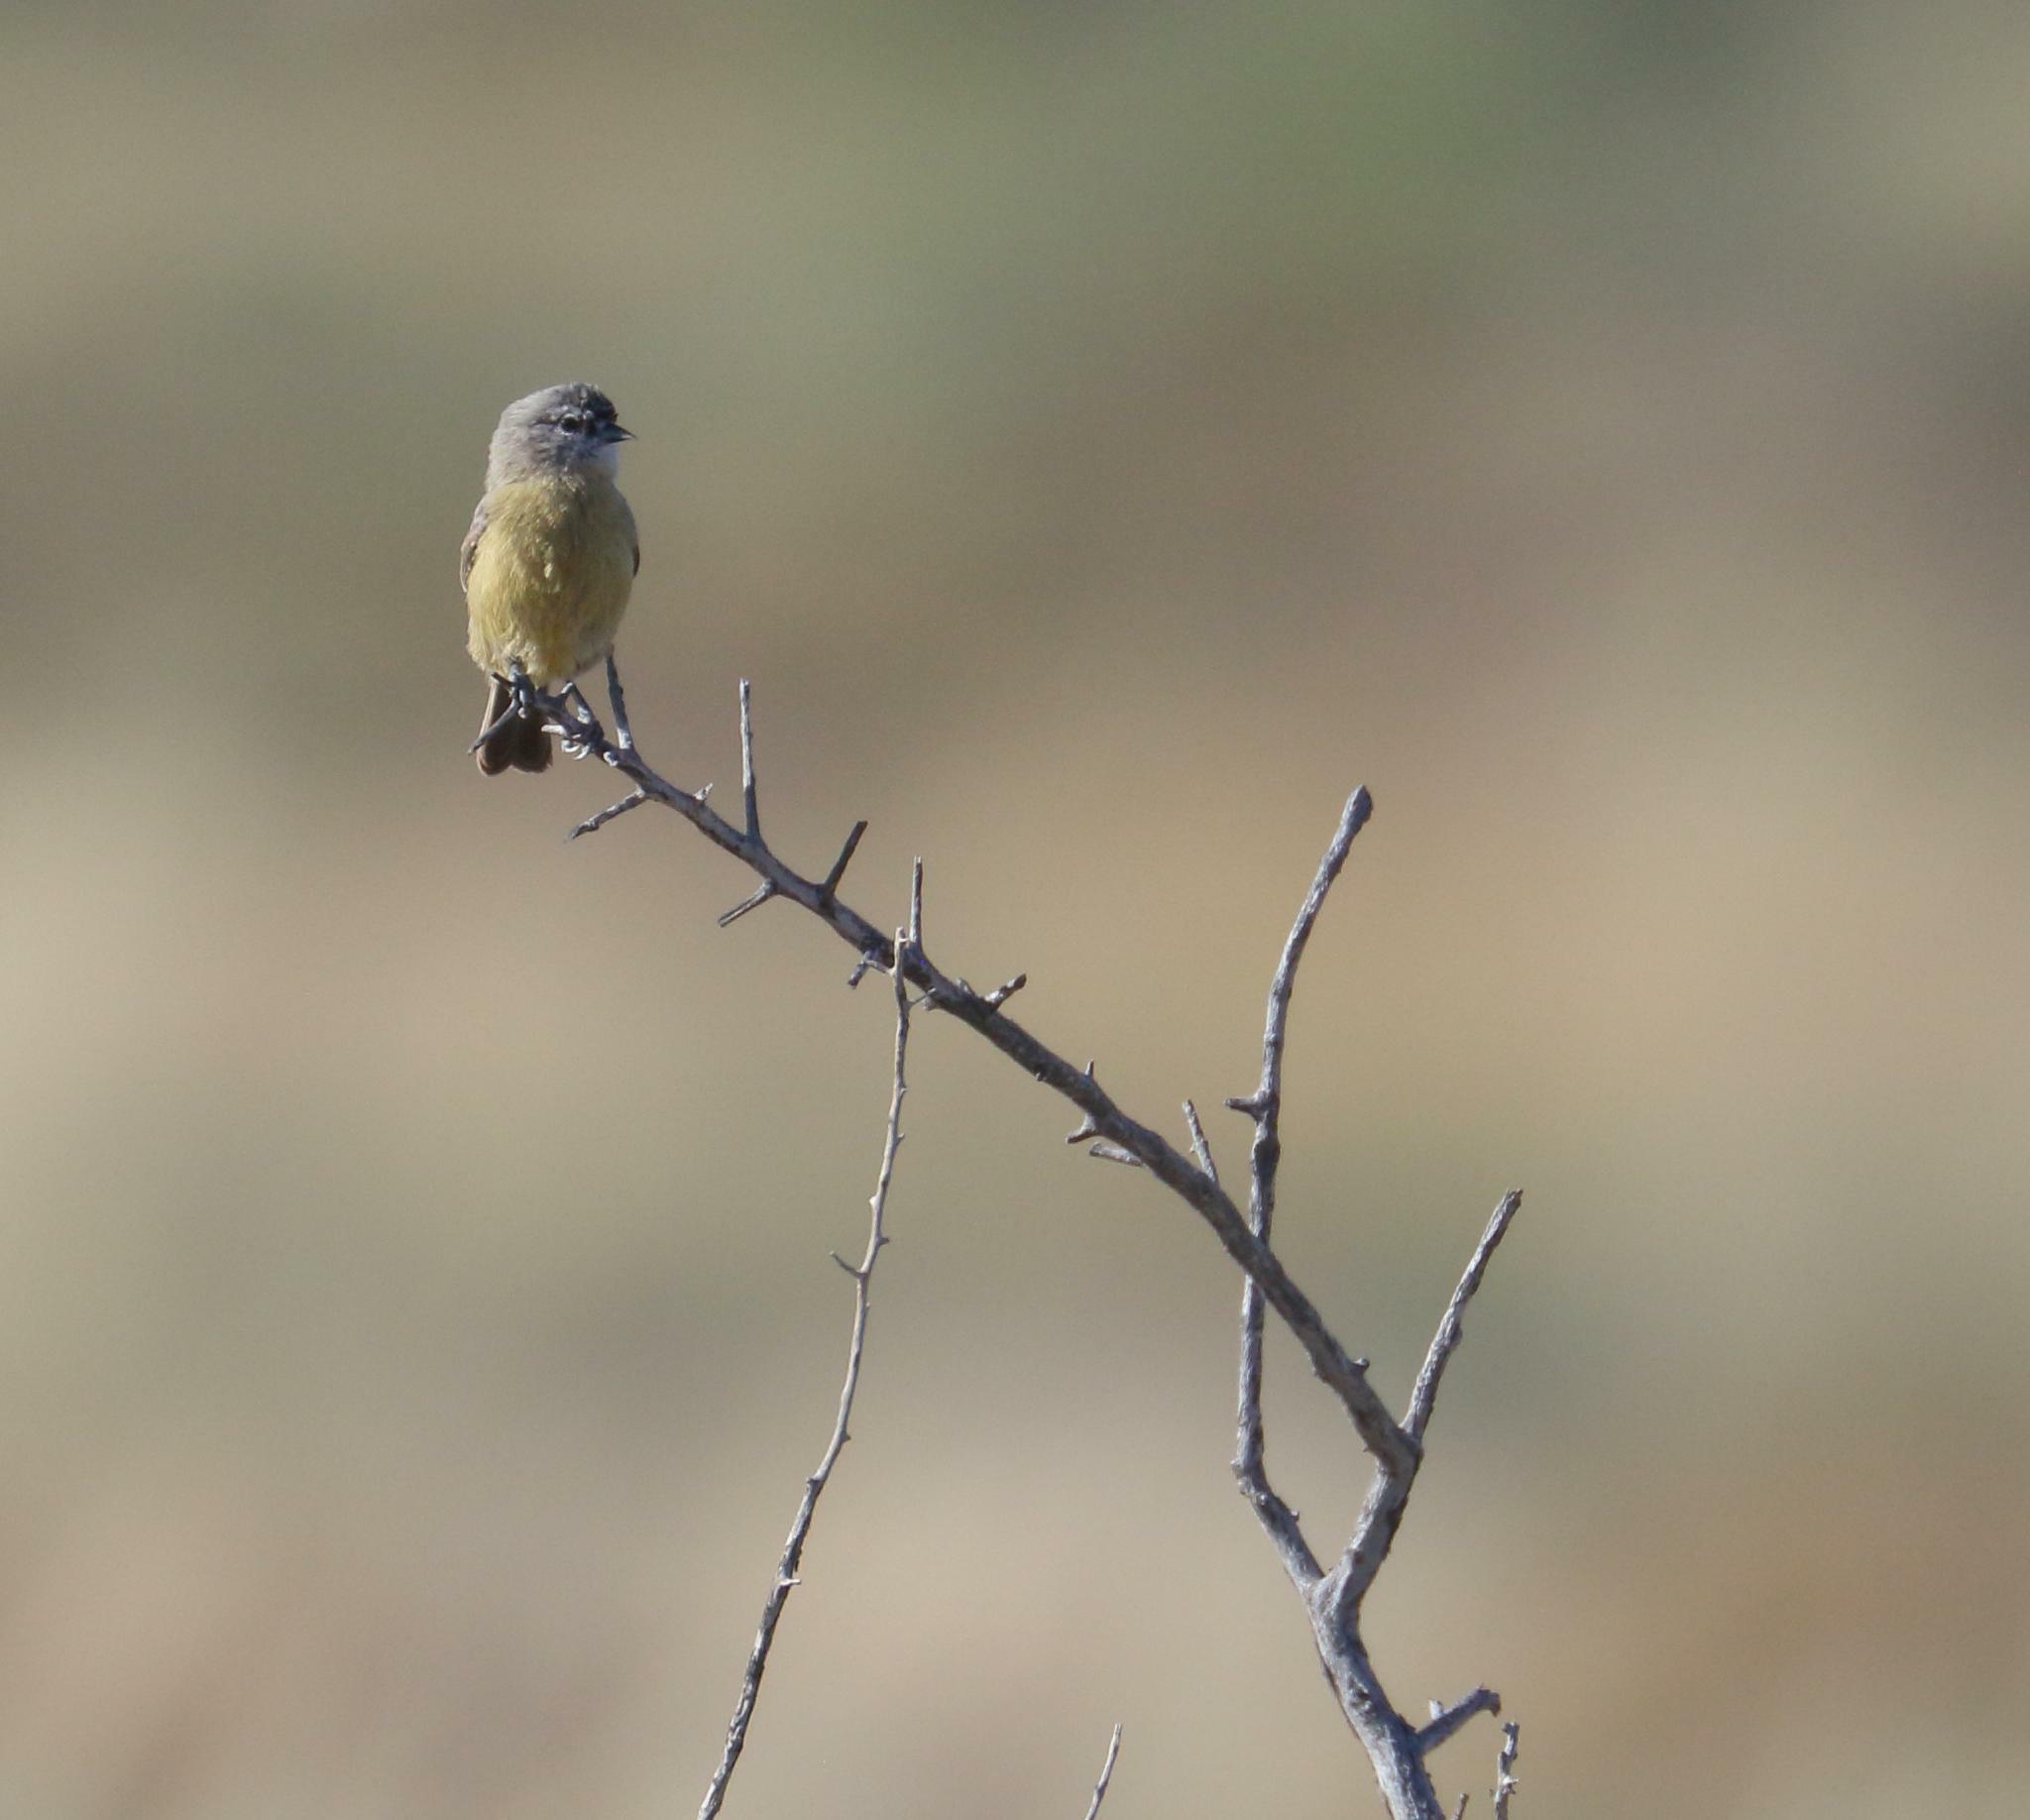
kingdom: Animalia
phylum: Chordata
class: Aves
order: Passeriformes
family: Remizidae
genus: Anthoscopus
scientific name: Anthoscopus minutus
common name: Cape penduline tit
